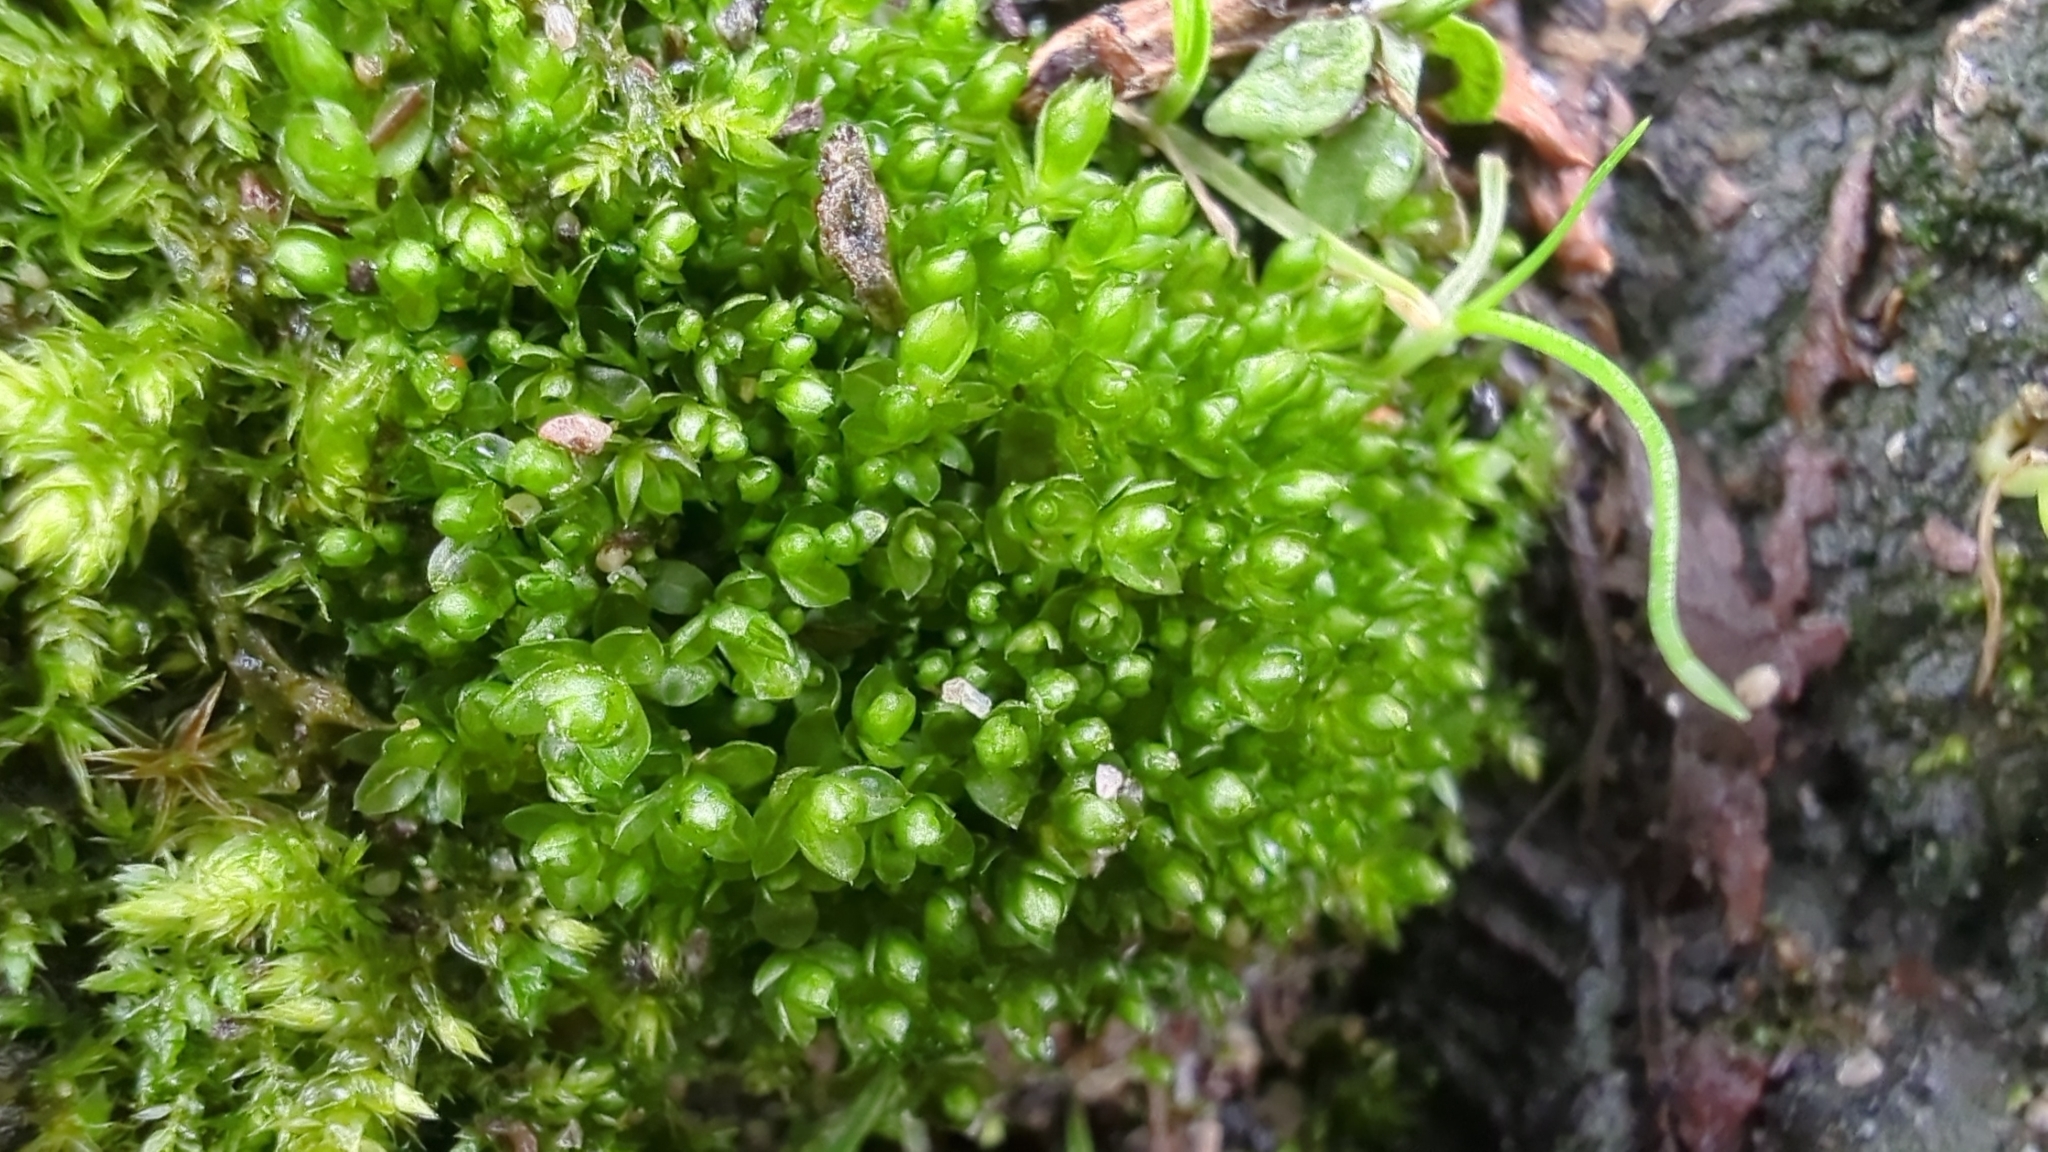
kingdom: Plantae
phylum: Bryophyta
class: Bryopsida
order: Bryales
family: Bryaceae
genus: Rosulabryum
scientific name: Rosulabryum capillare
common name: Capillary thread-moss
